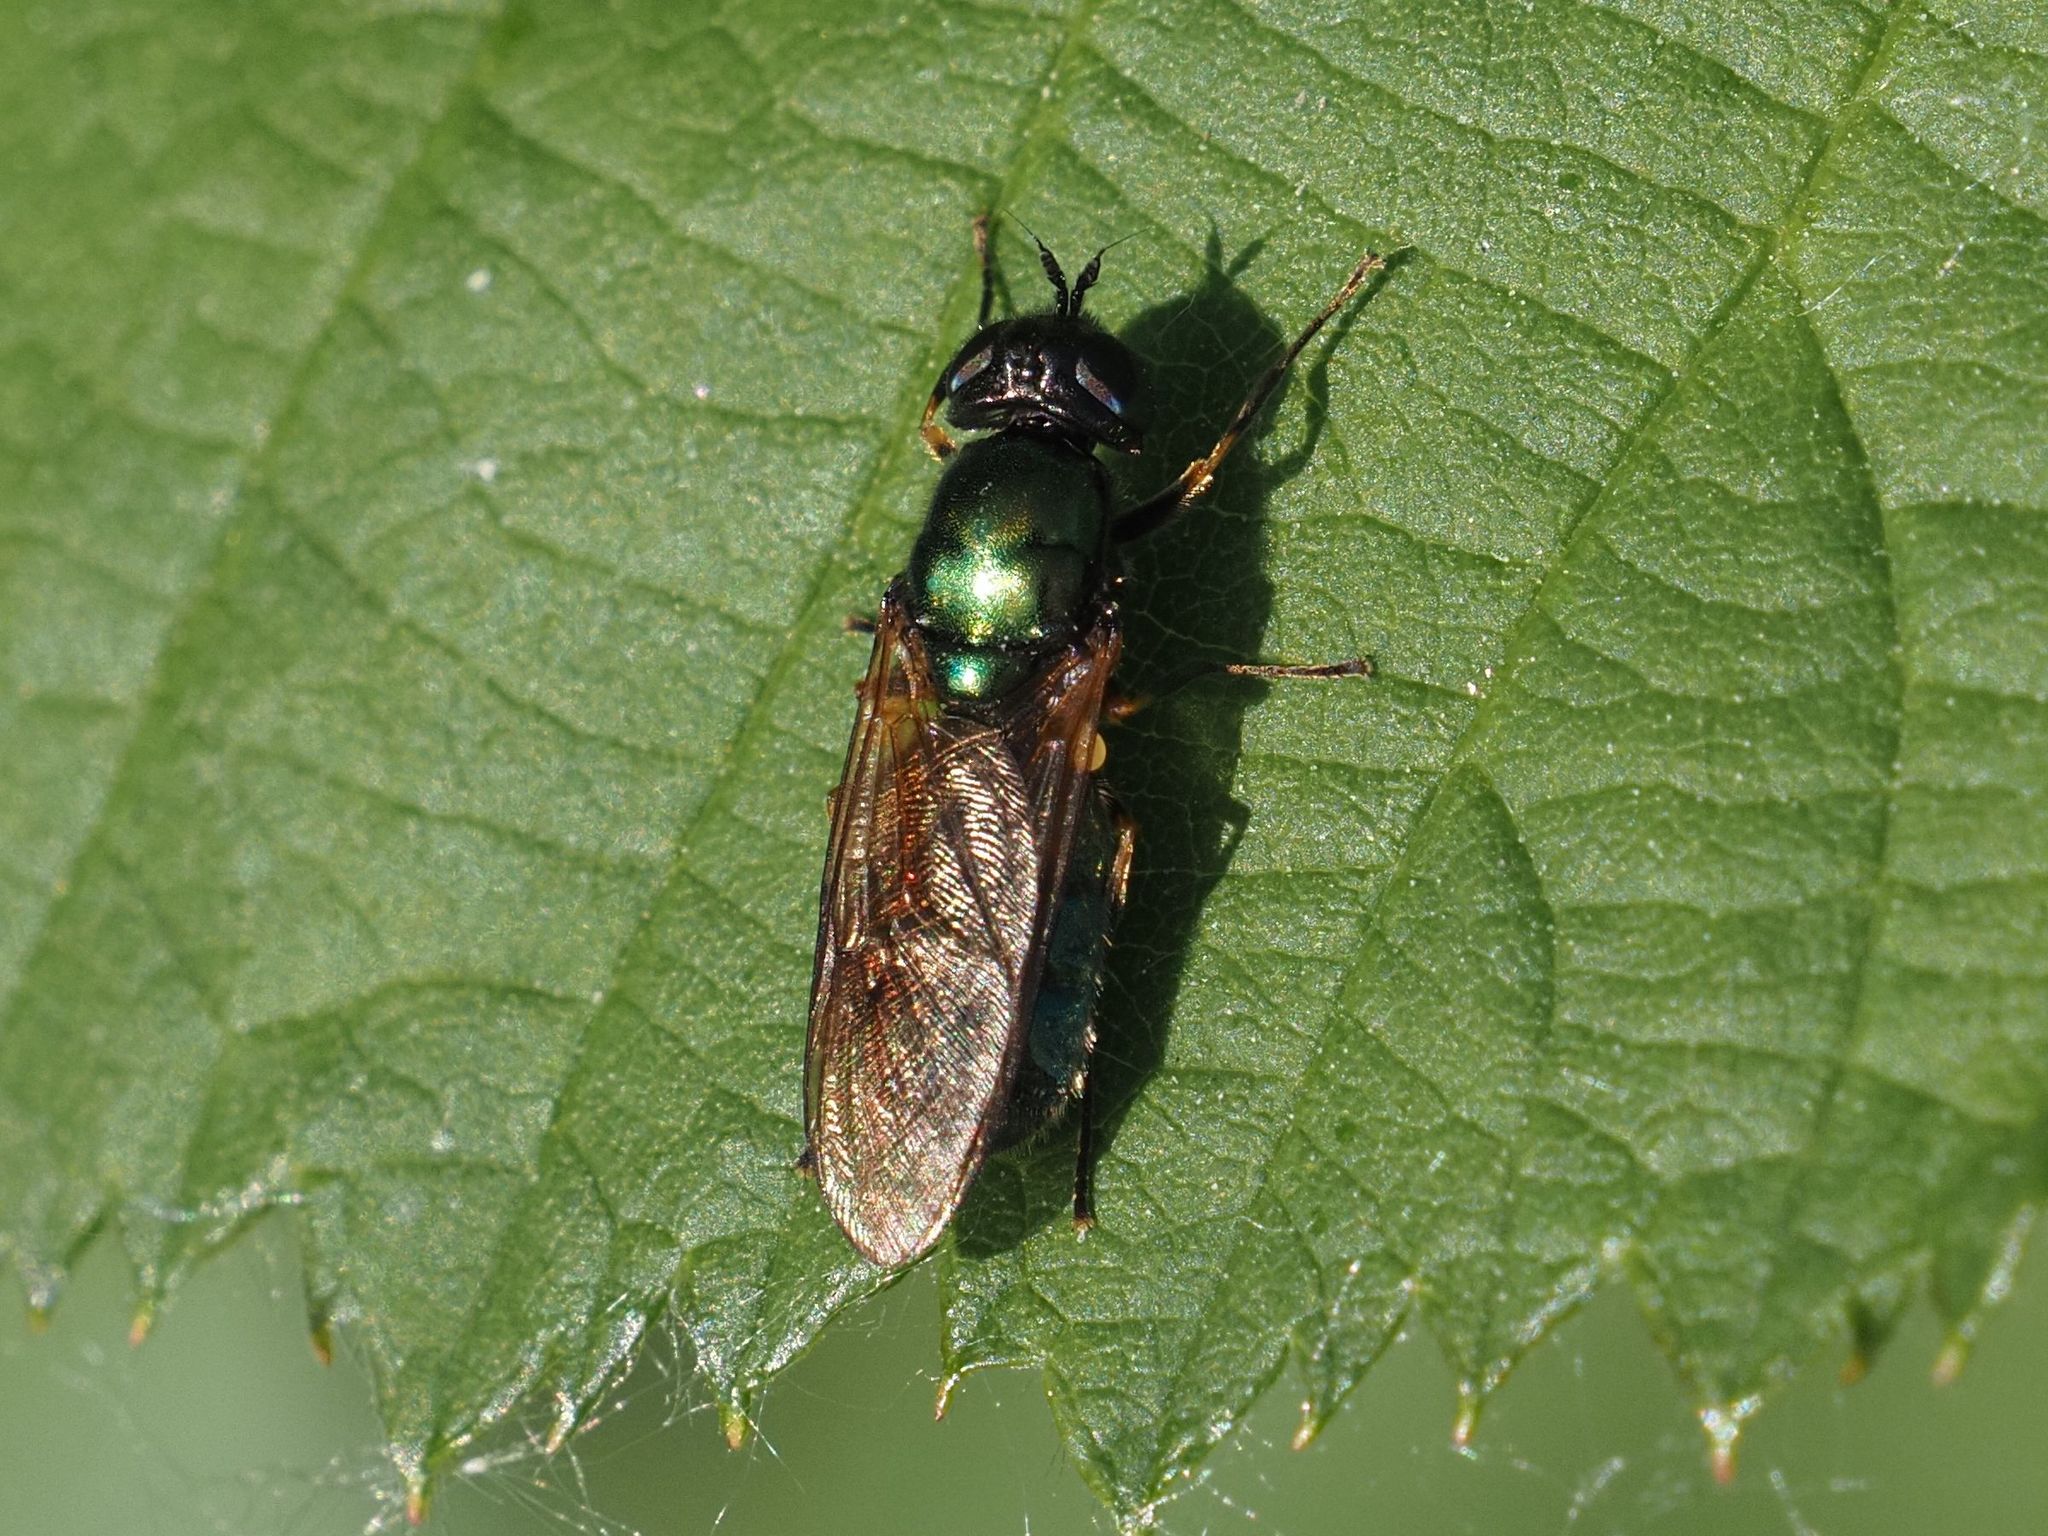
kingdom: Animalia
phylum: Arthropoda
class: Insecta
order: Diptera
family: Stratiomyidae
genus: Chloromyia
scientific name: Chloromyia formosa
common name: Soldier fly
